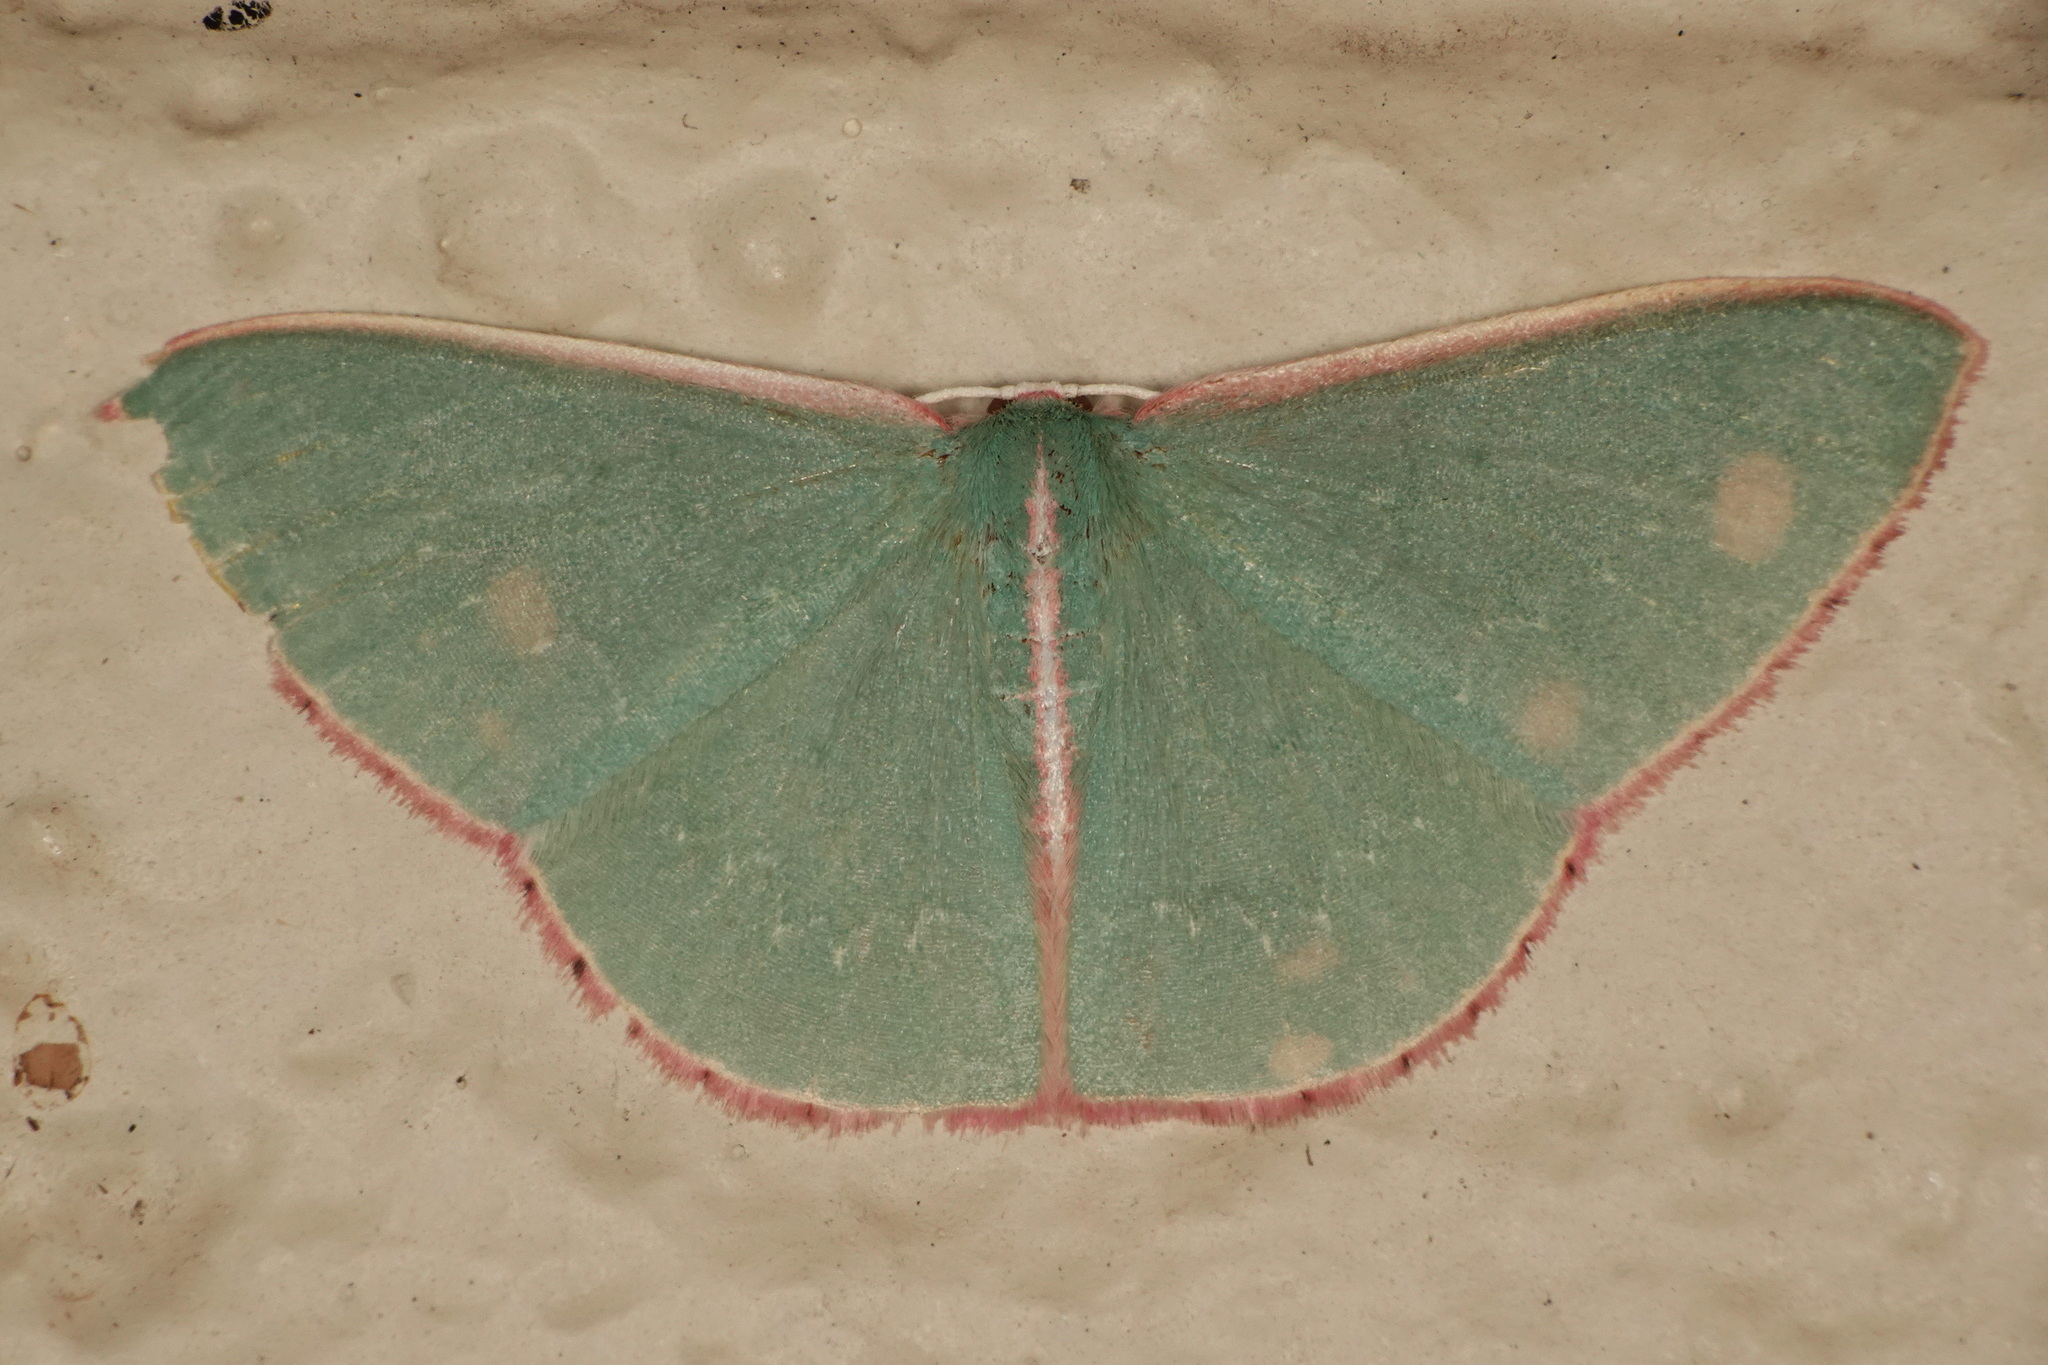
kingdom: Animalia
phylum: Arthropoda
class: Insecta
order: Lepidoptera
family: Geometridae
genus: Chlorocoma
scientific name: Chlorocoma vertumnaria
